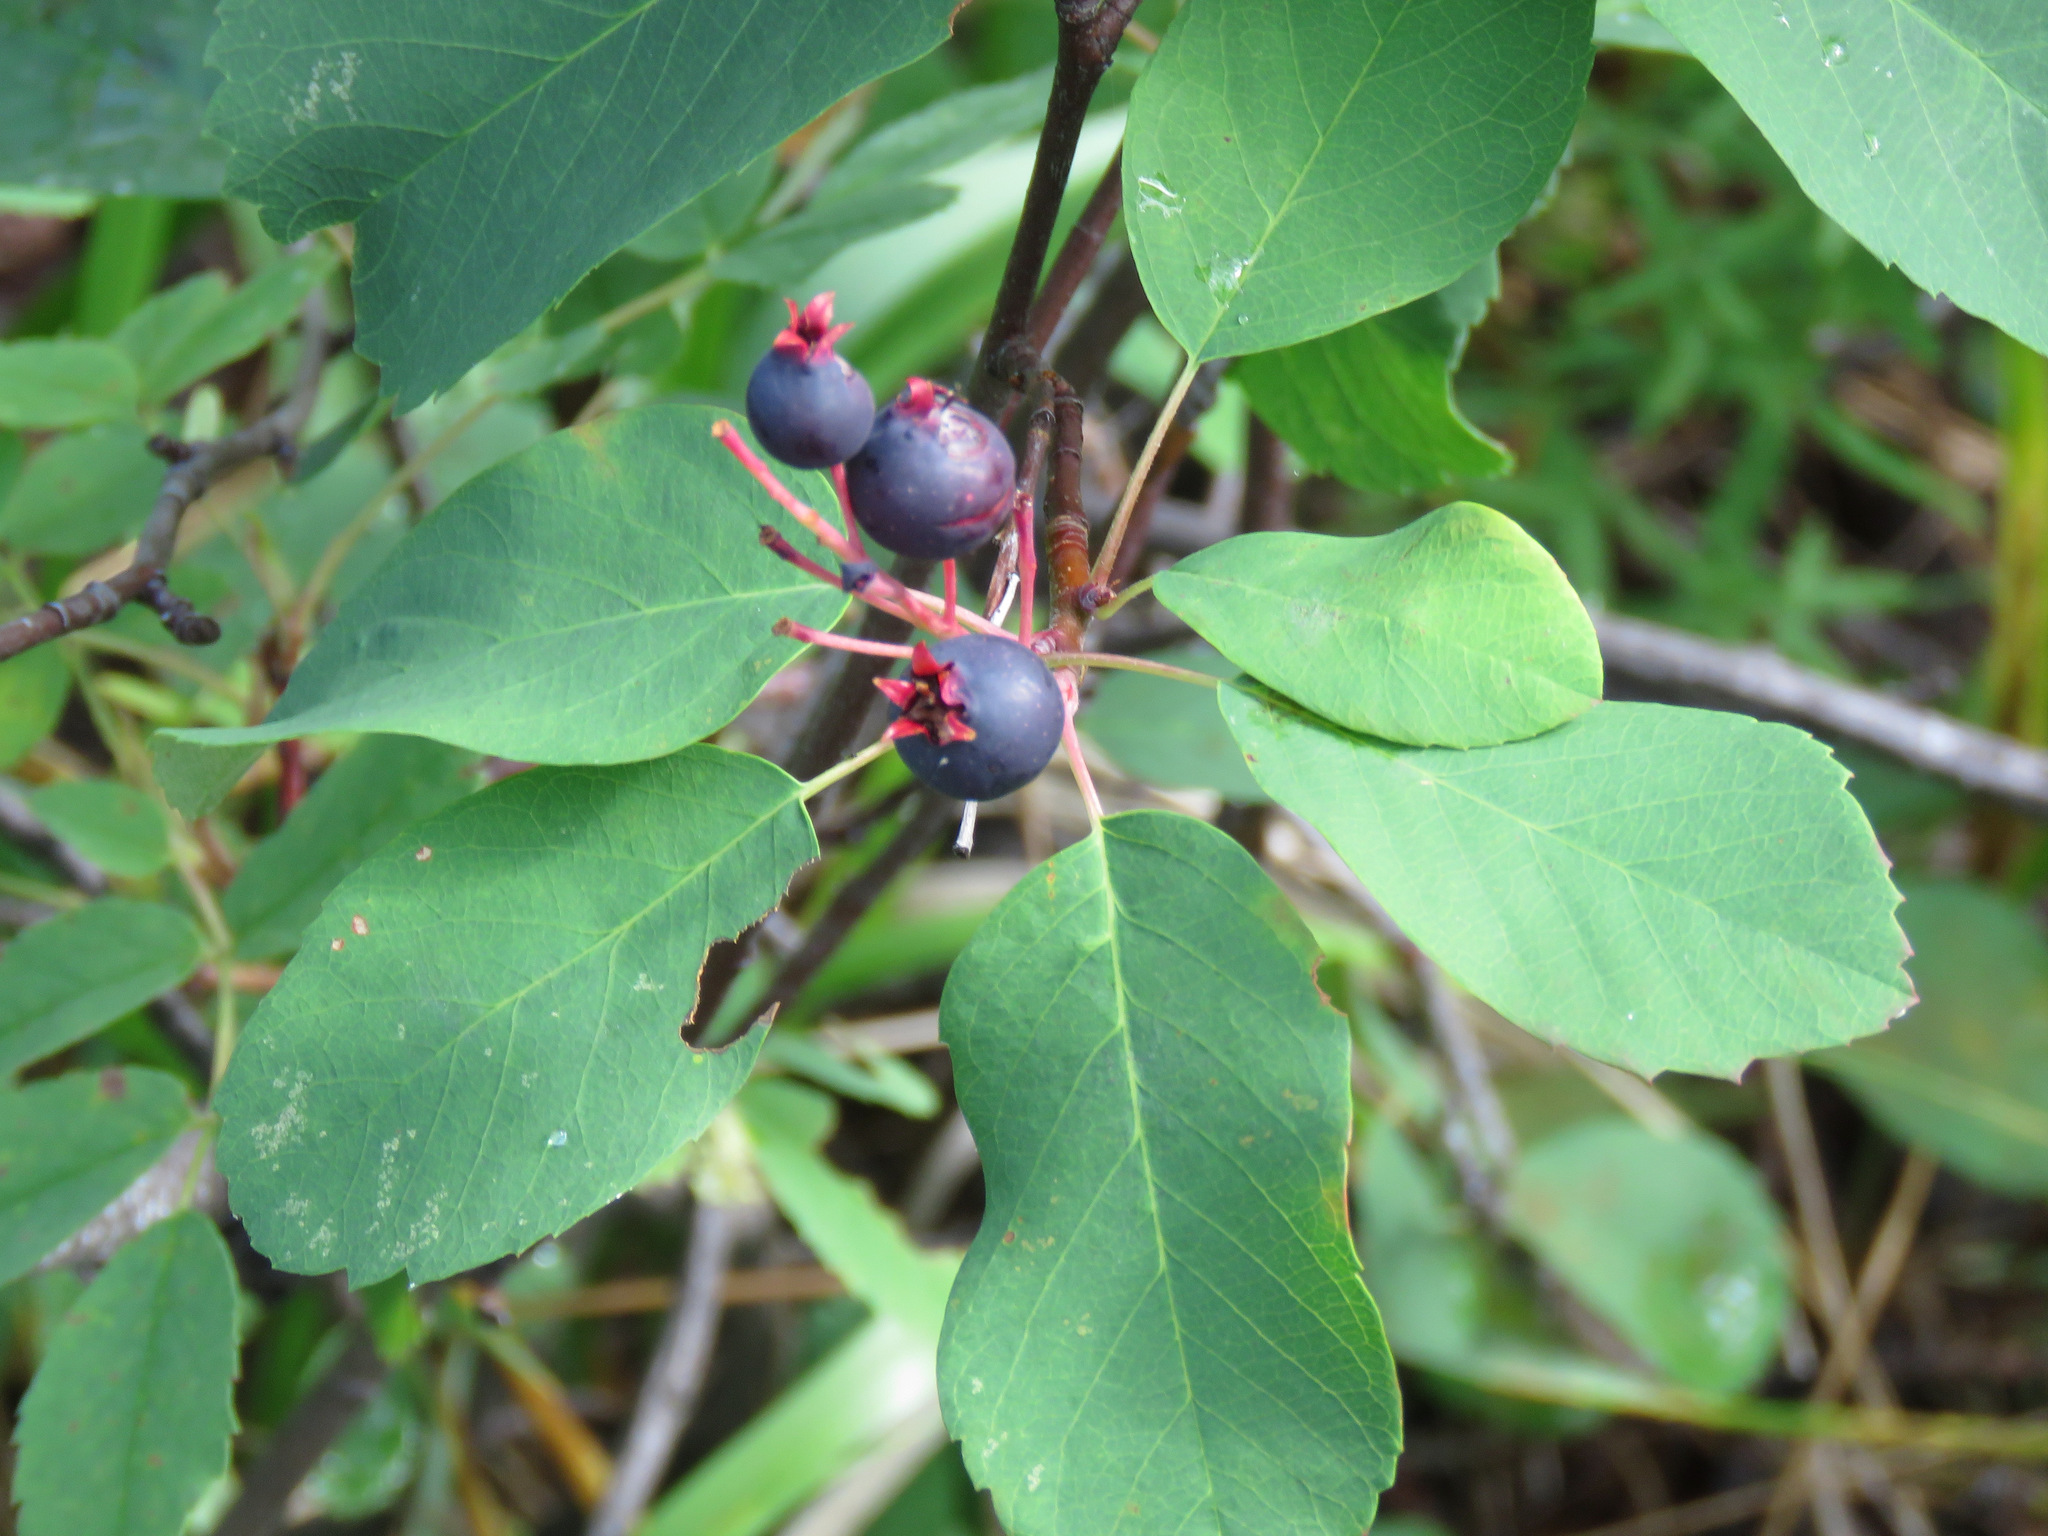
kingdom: Plantae
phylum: Tracheophyta
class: Magnoliopsida
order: Rosales
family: Rosaceae
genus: Amelanchier
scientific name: Amelanchier alnifolia
